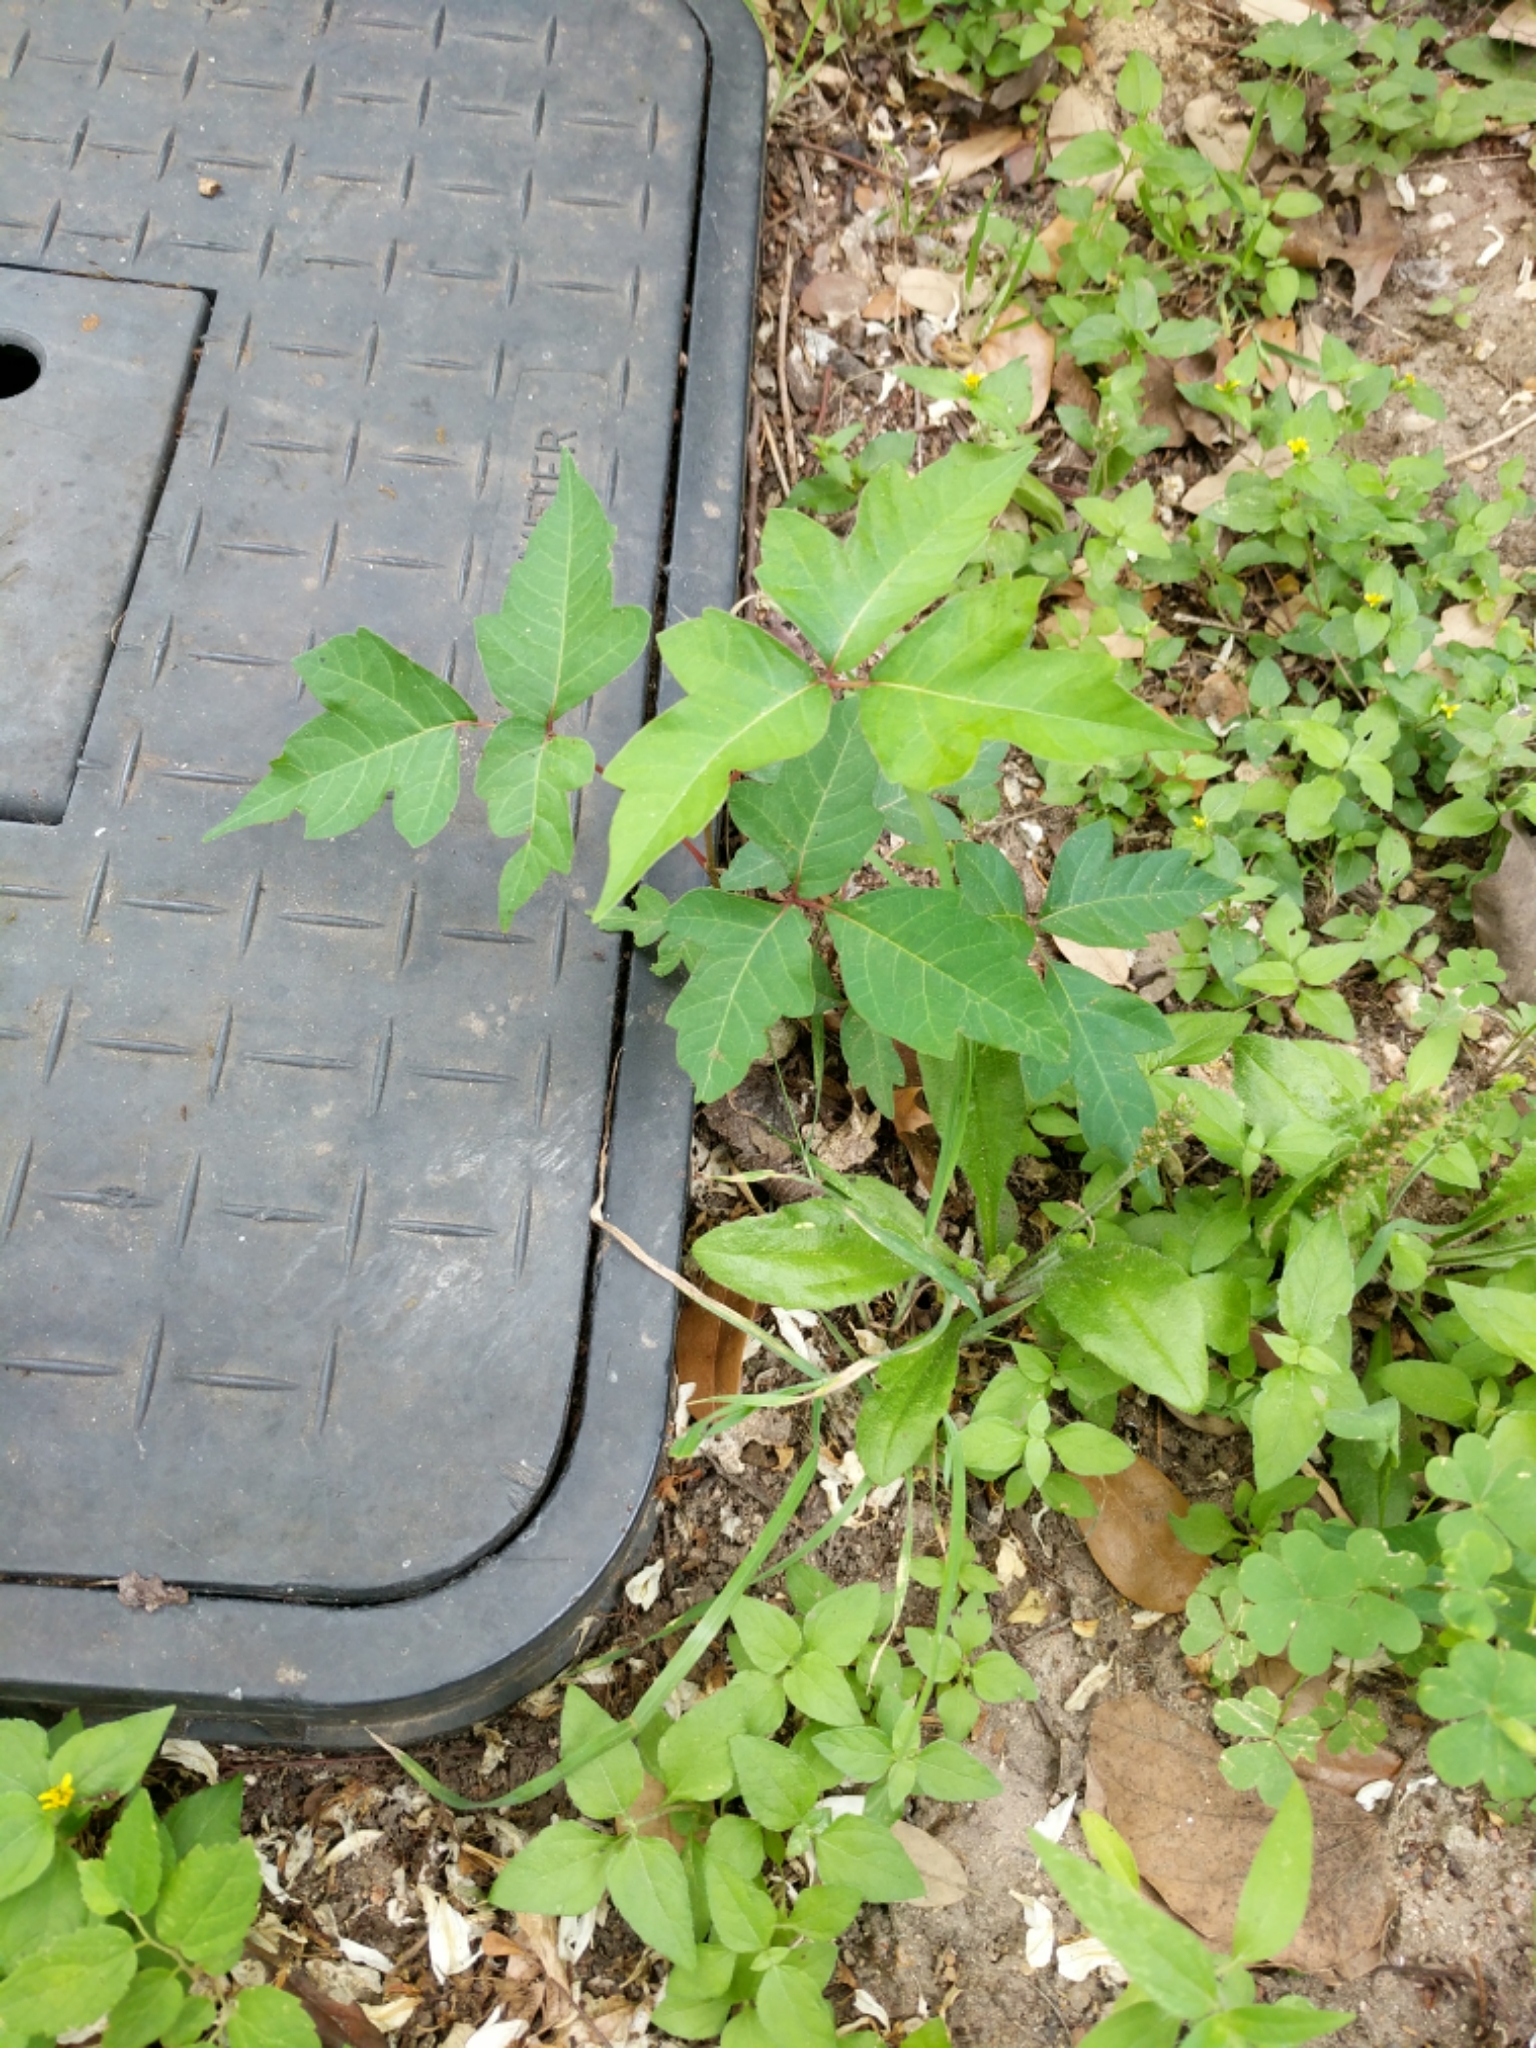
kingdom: Plantae
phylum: Tracheophyta
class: Magnoliopsida
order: Sapindales
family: Anacardiaceae
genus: Toxicodendron
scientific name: Toxicodendron radicans
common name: Poison ivy
